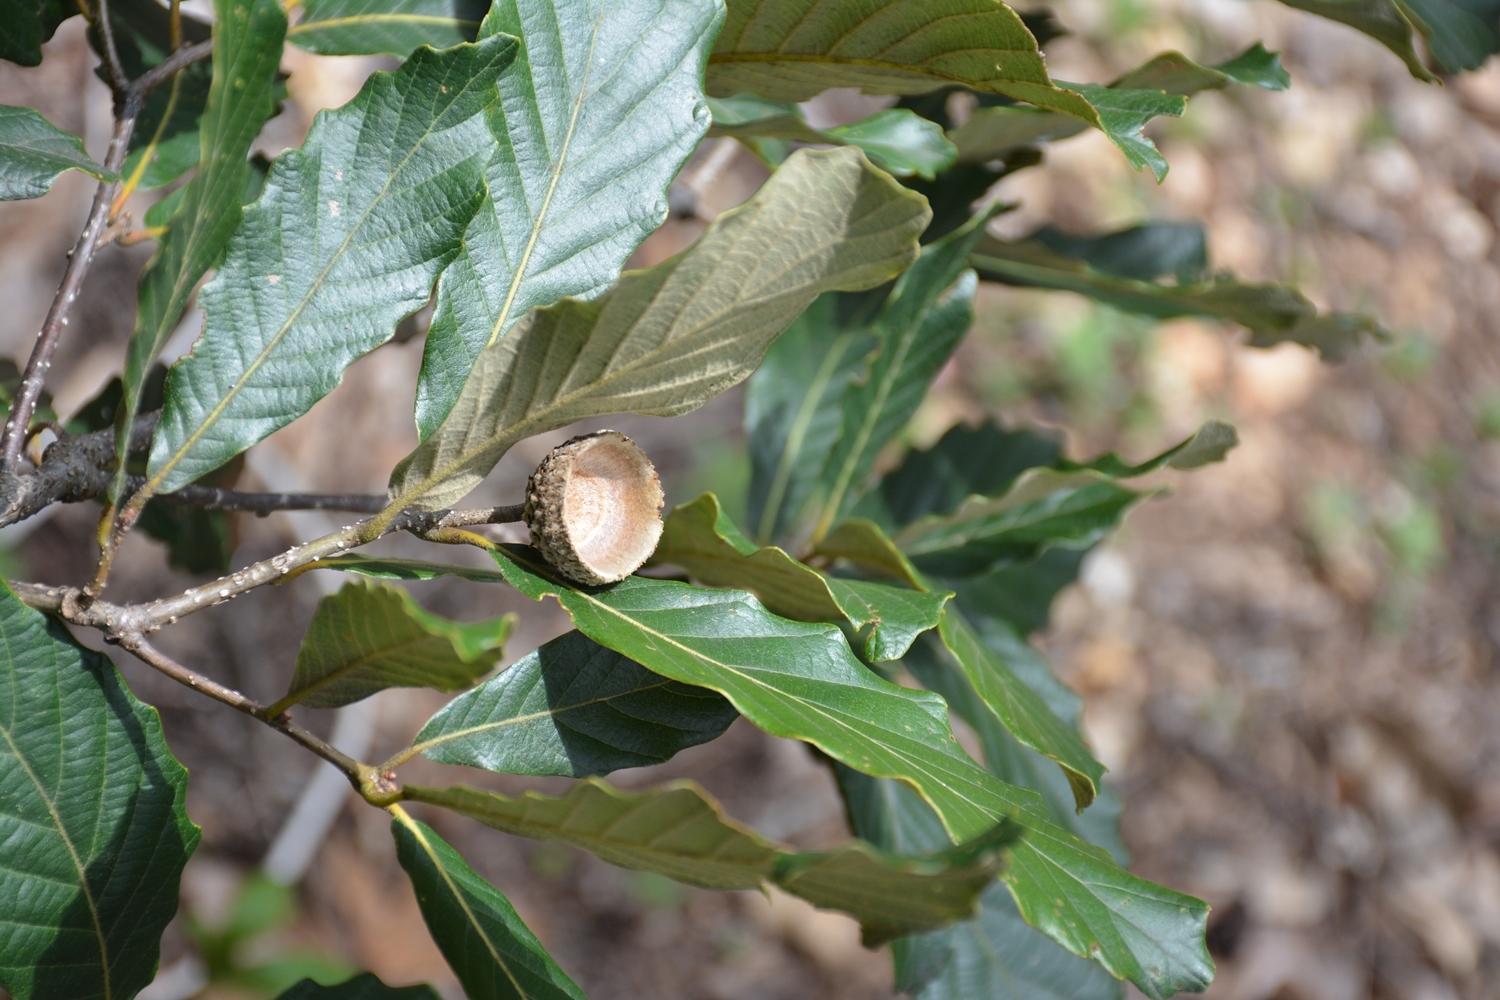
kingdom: Plantae
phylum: Tracheophyta
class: Magnoliopsida
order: Fagales
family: Fagaceae
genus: Quercus
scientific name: Quercus segoviensis
